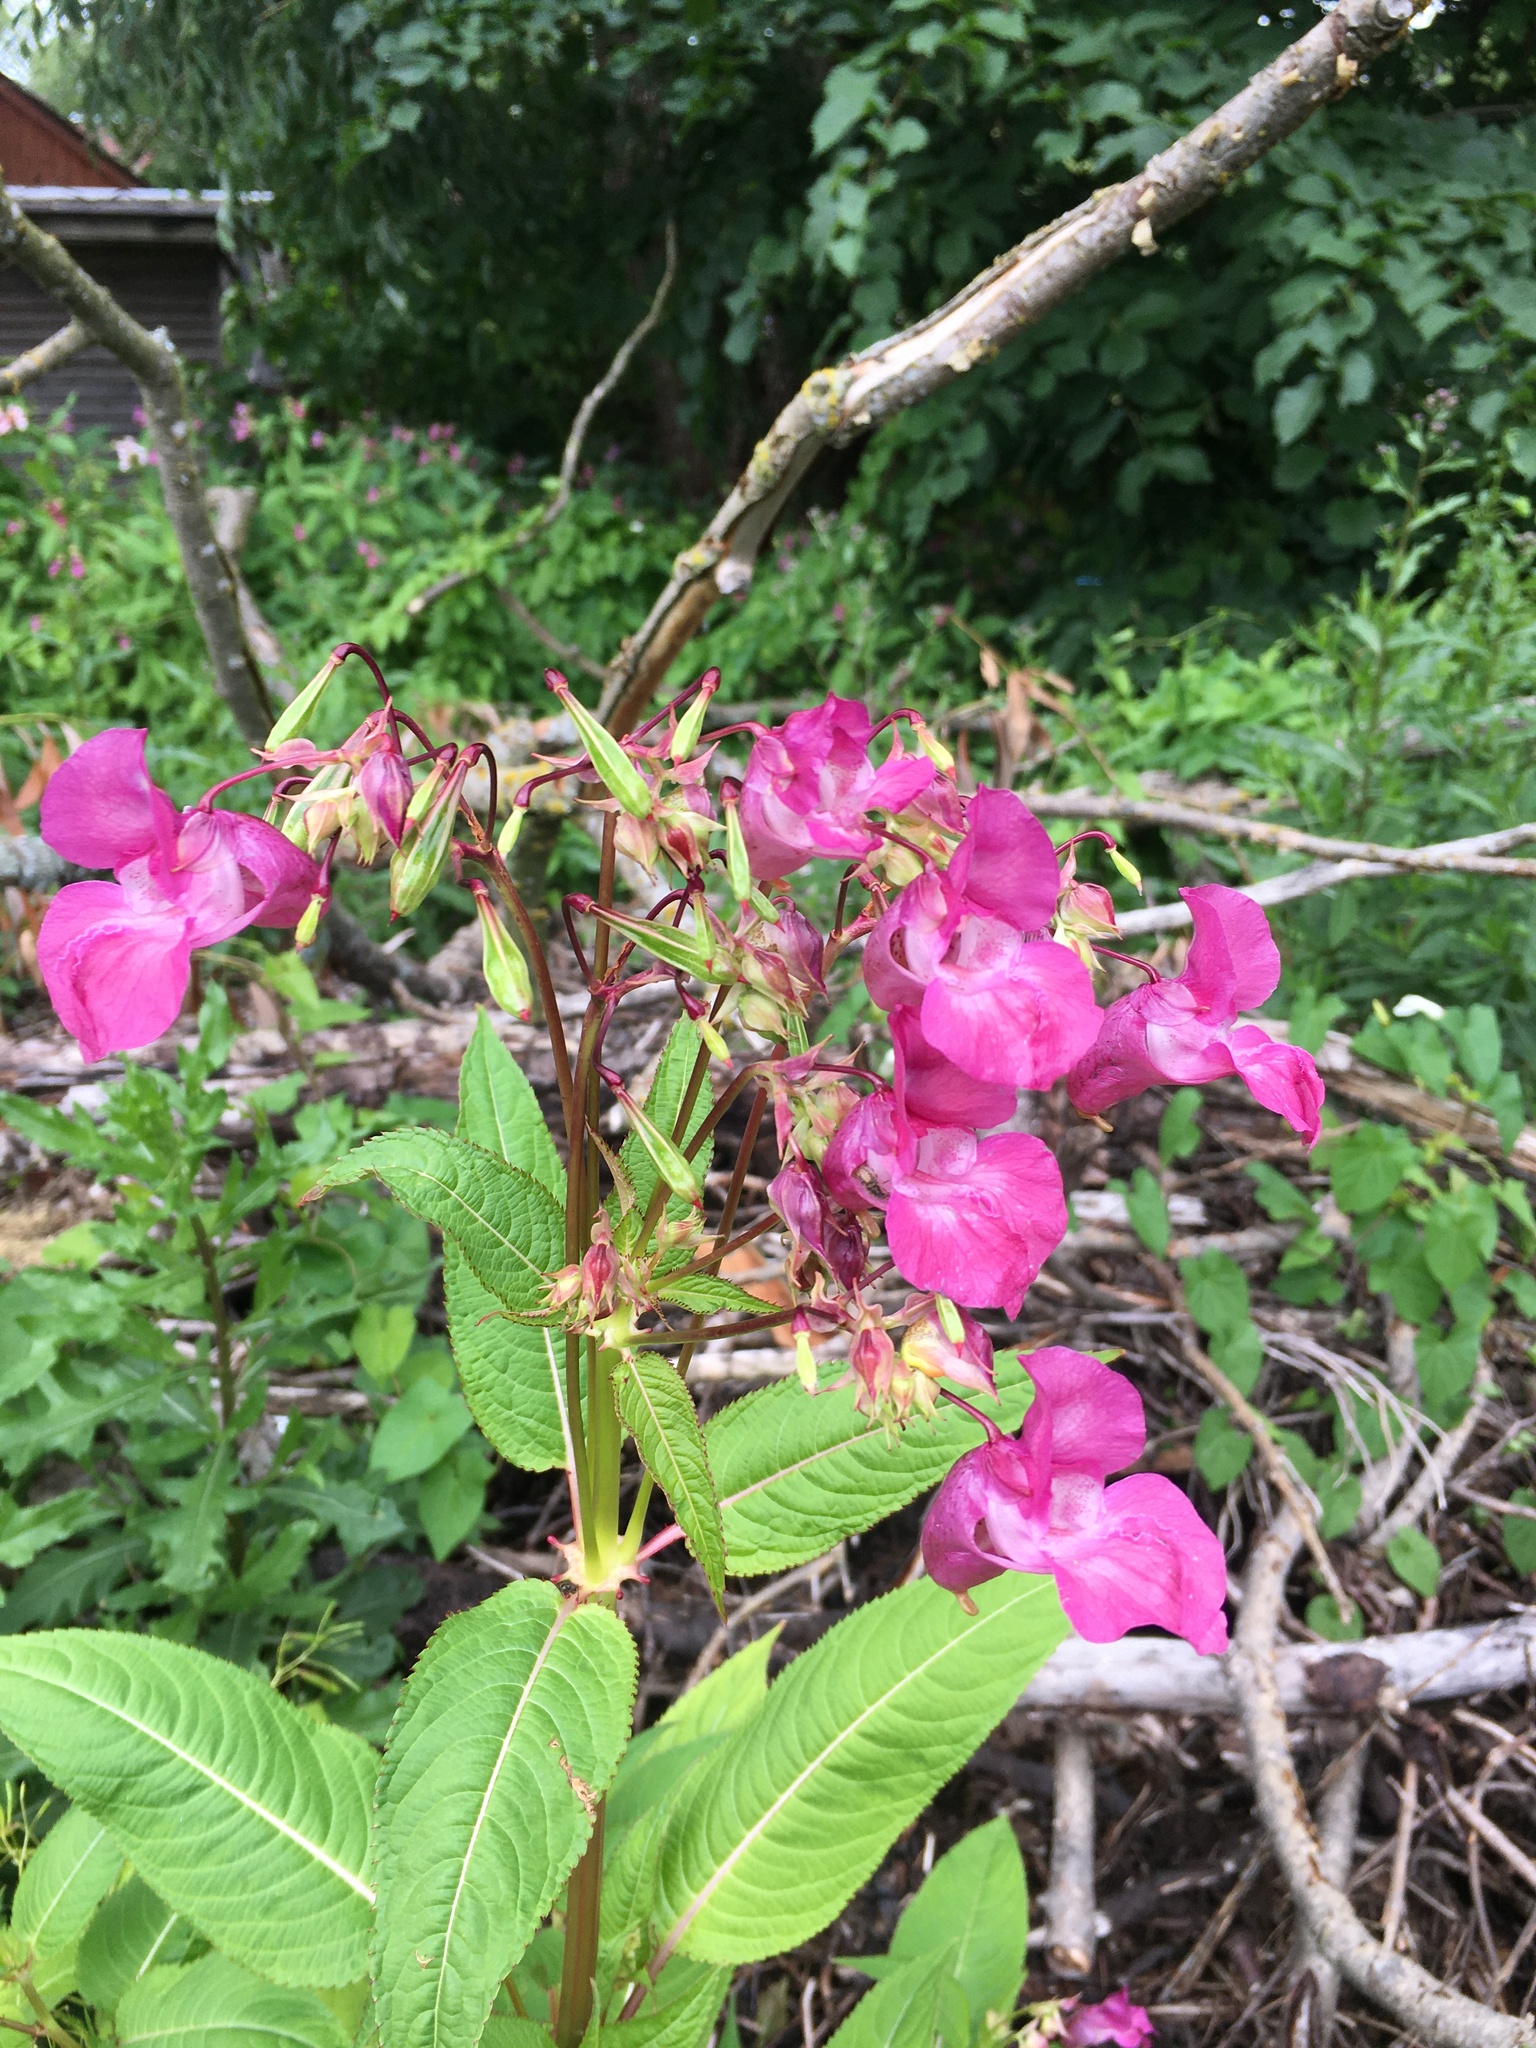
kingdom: Plantae
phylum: Tracheophyta
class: Magnoliopsida
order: Ericales
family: Balsaminaceae
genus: Impatiens
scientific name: Impatiens glandulifera
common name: Himalayan balsam
